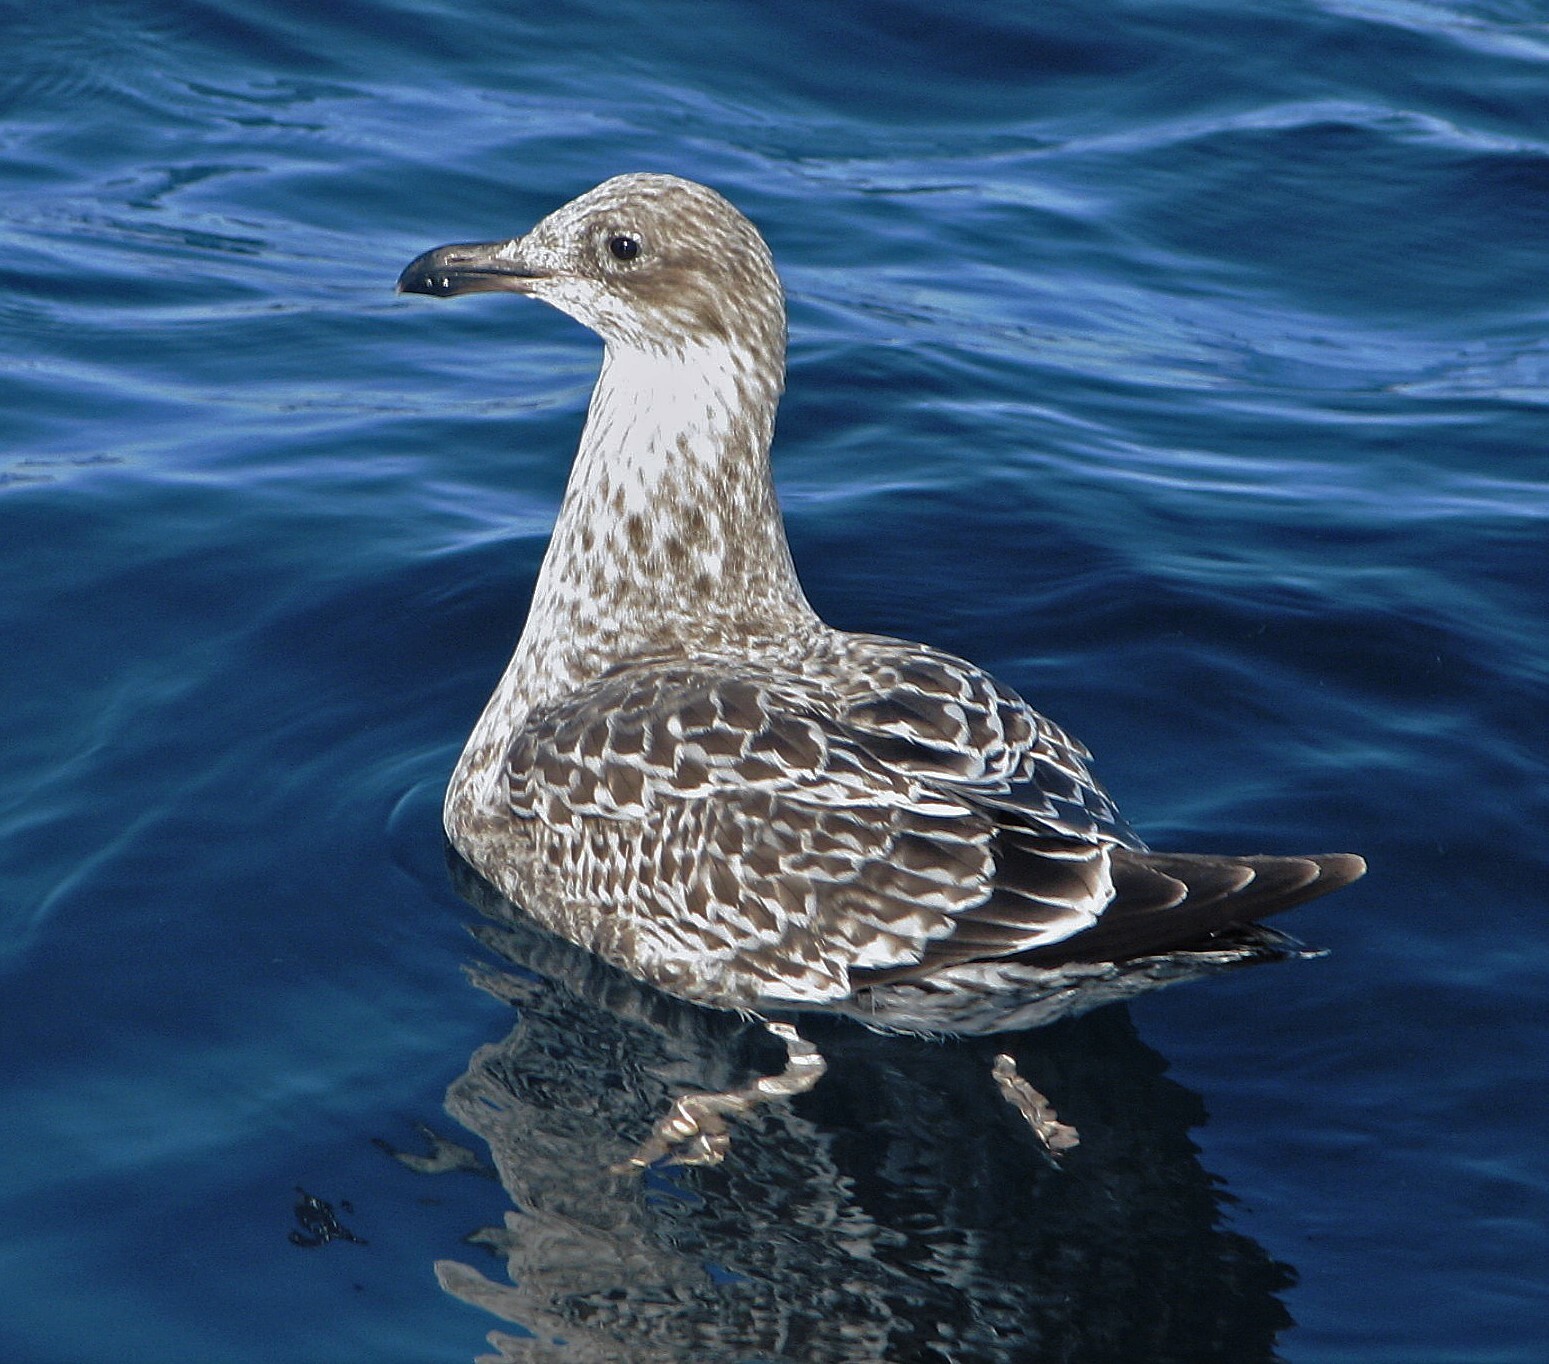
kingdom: Animalia
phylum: Chordata
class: Aves
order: Charadriiformes
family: Laridae
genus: Larus
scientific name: Larus dominicanus
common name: Kelp gull
